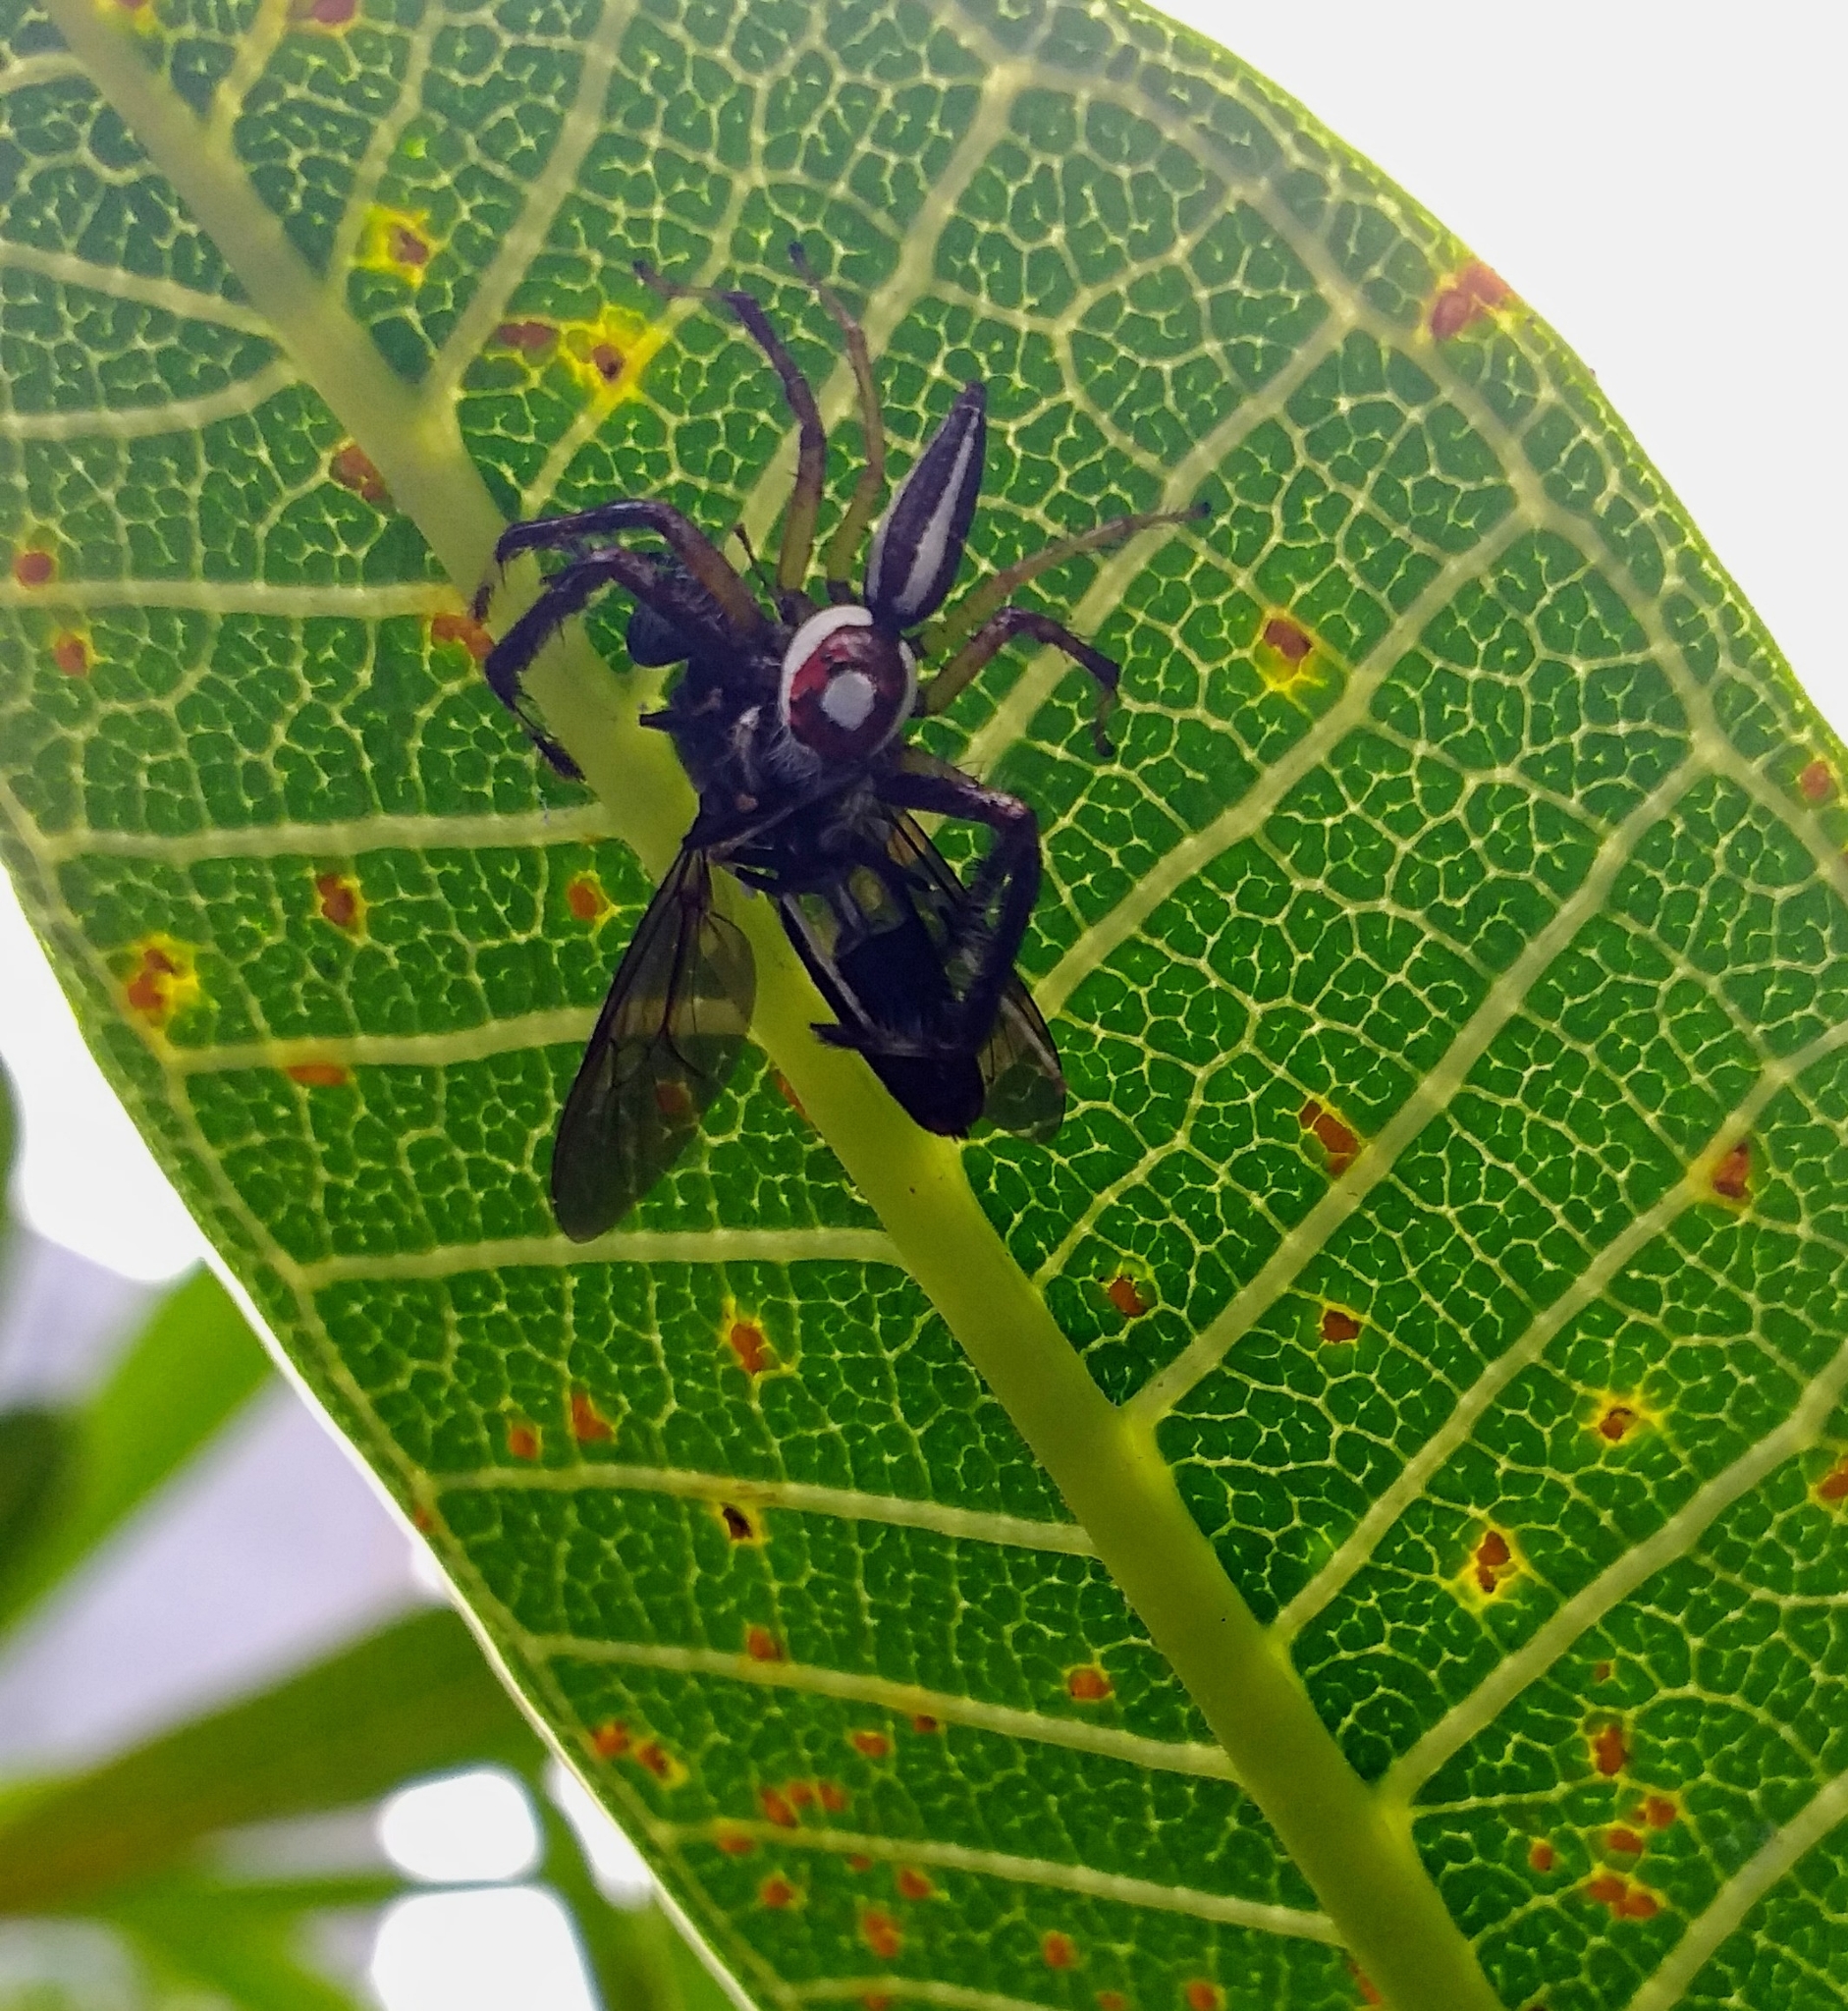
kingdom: Animalia
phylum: Arthropoda
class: Arachnida
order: Araneae
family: Salticidae
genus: Telamonia
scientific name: Telamonia dimidiata
